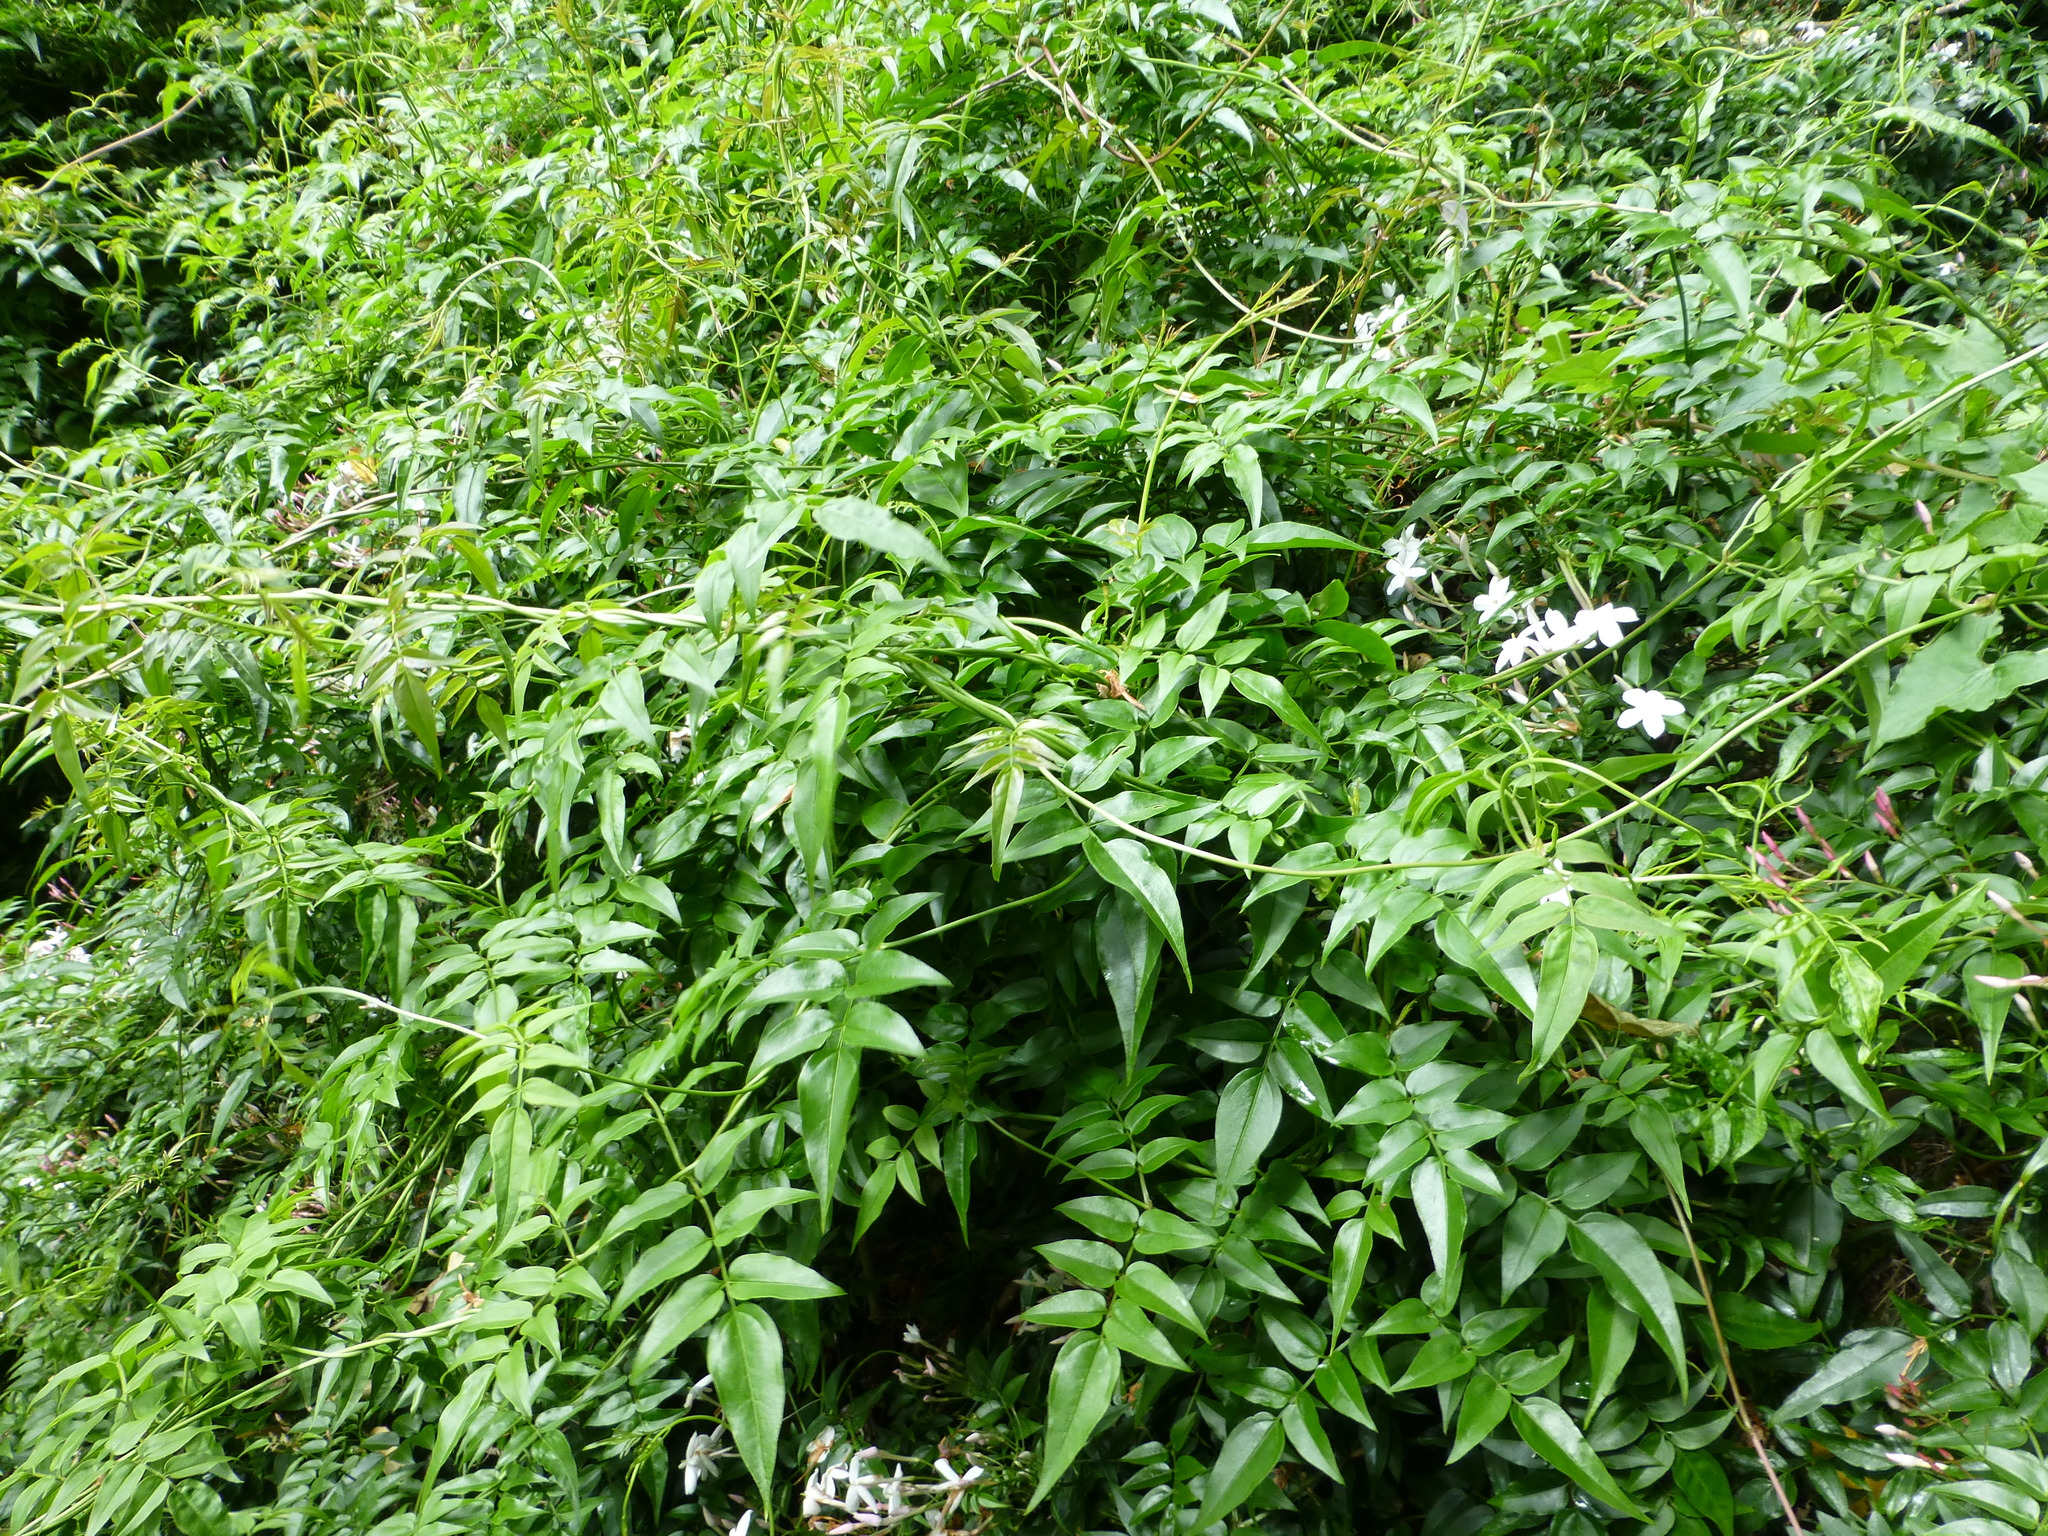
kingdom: Plantae
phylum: Tracheophyta
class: Magnoliopsida
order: Lamiales
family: Oleaceae
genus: Jasminum
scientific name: Jasminum polyanthum
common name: Pink jasmine
